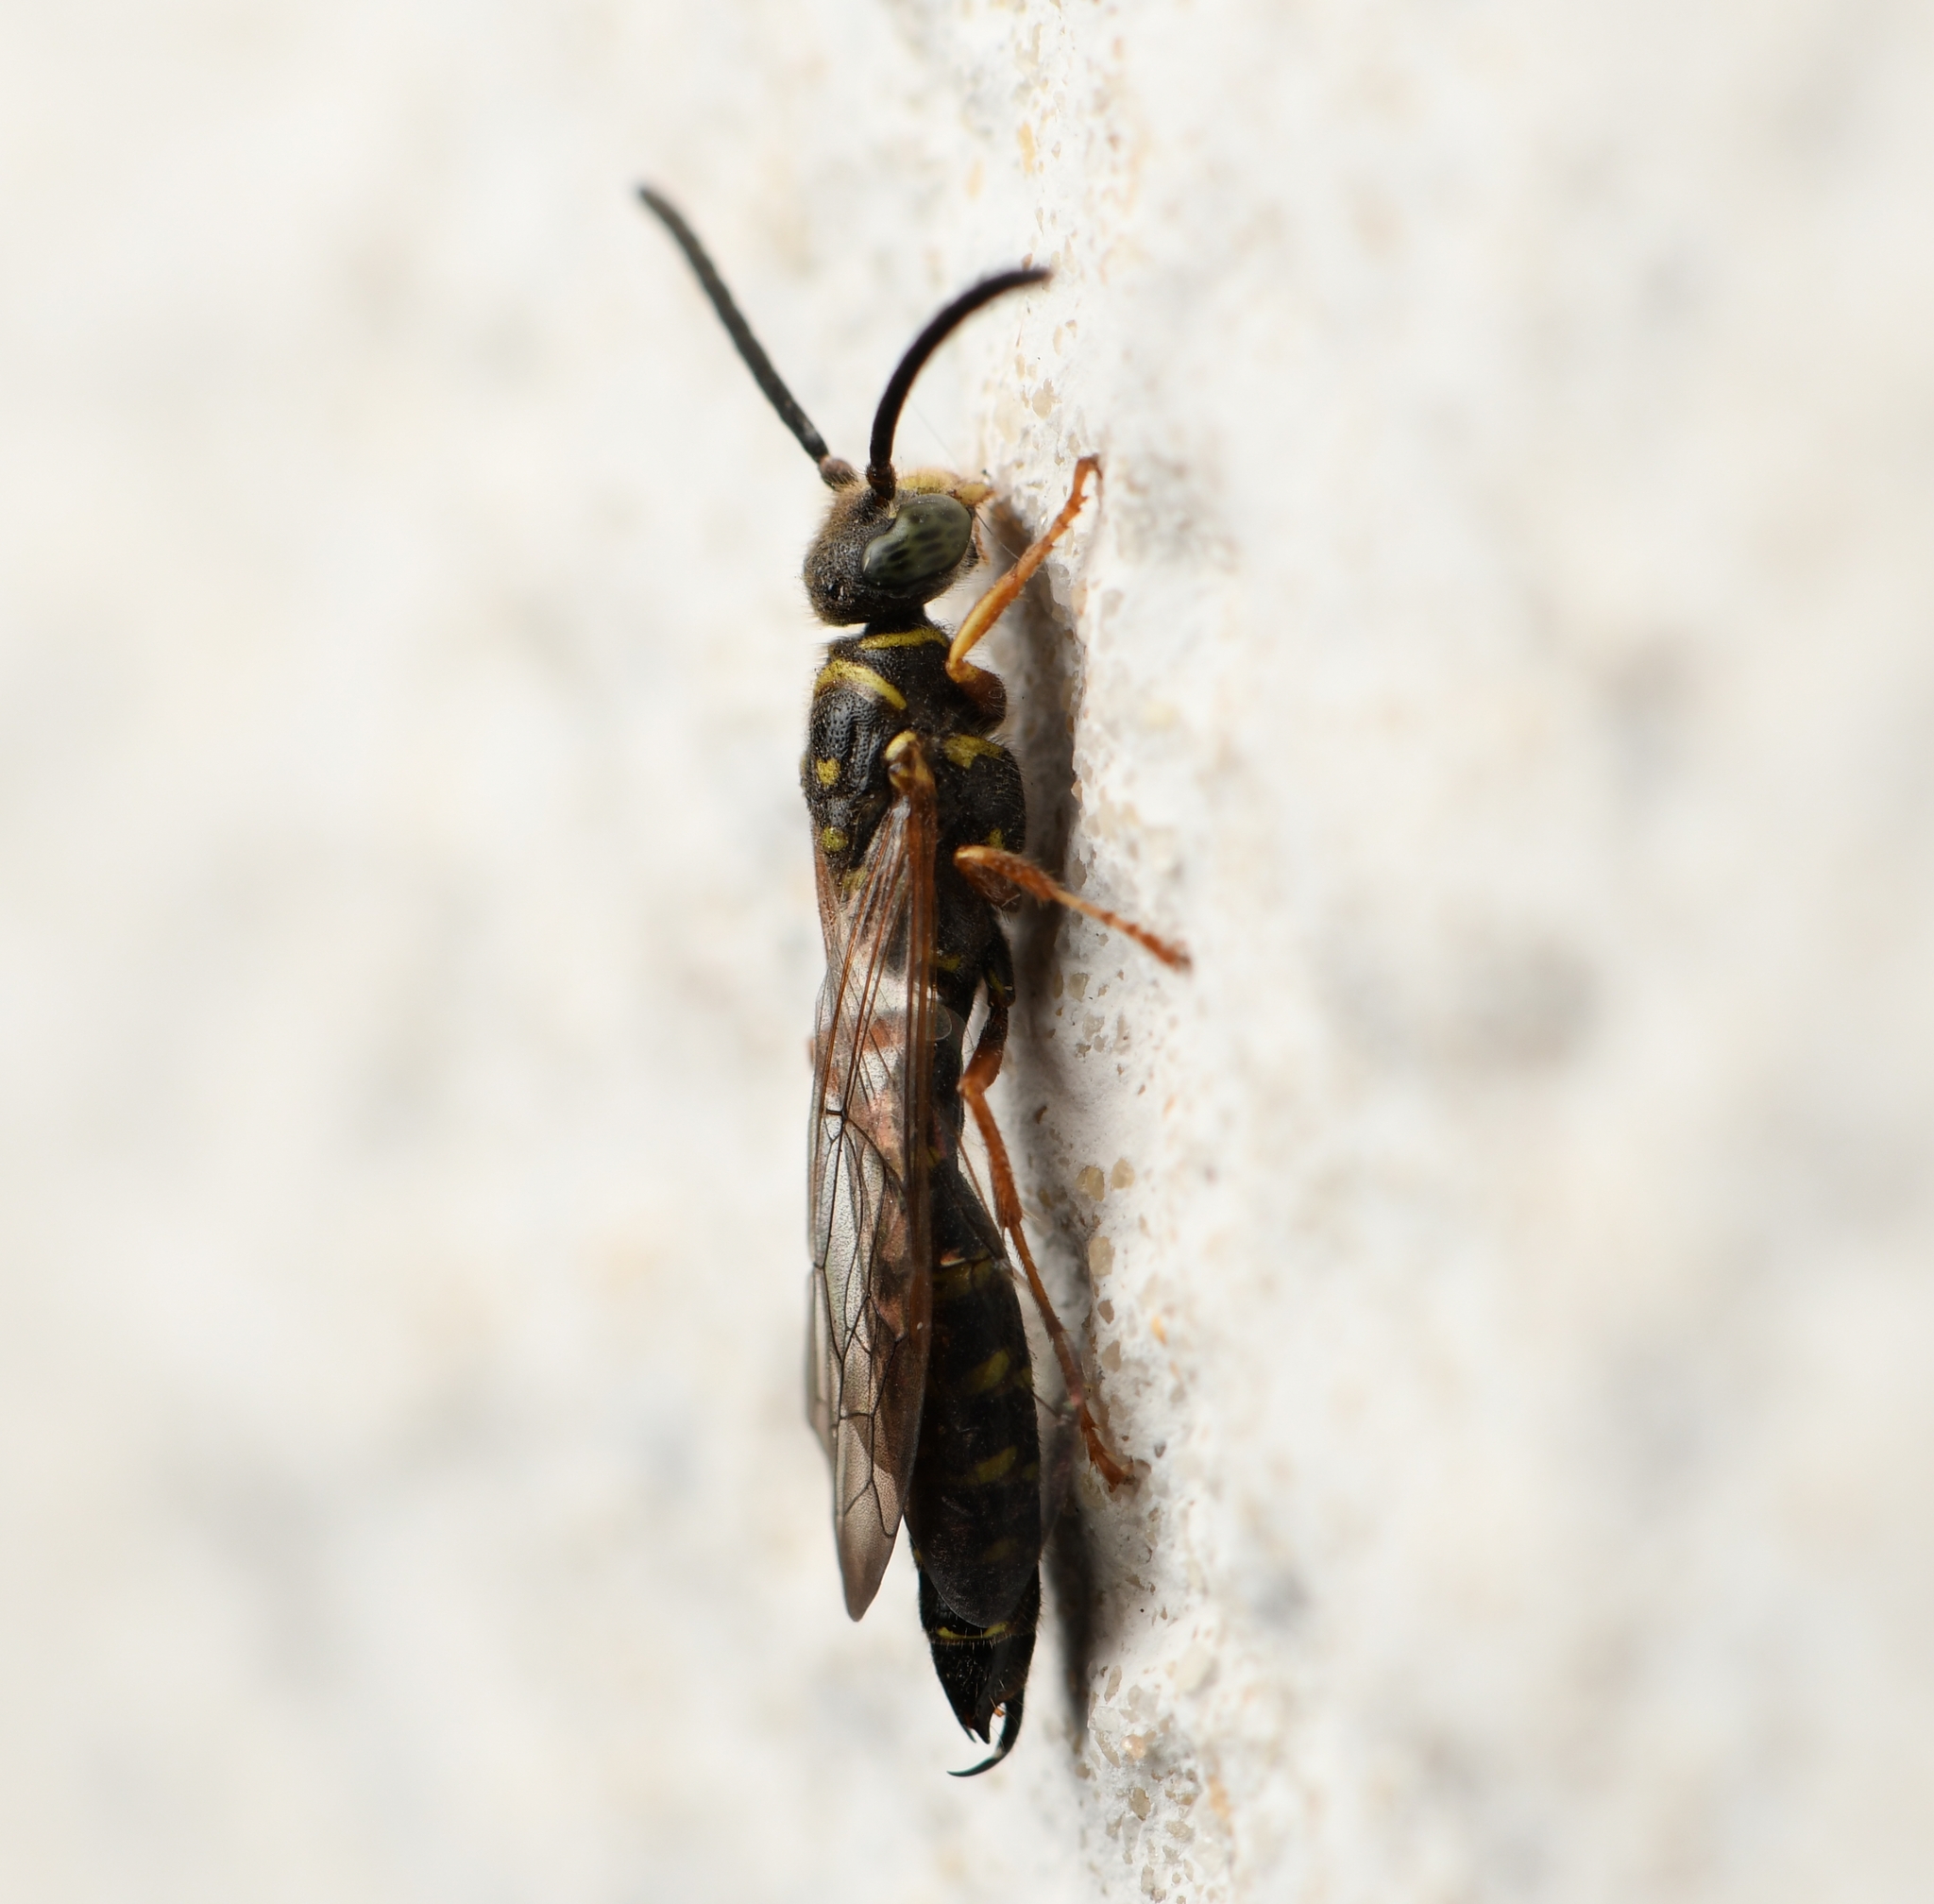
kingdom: Animalia
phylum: Arthropoda
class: Insecta
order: Hymenoptera
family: Tiphiidae
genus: Myzinum
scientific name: Myzinum
